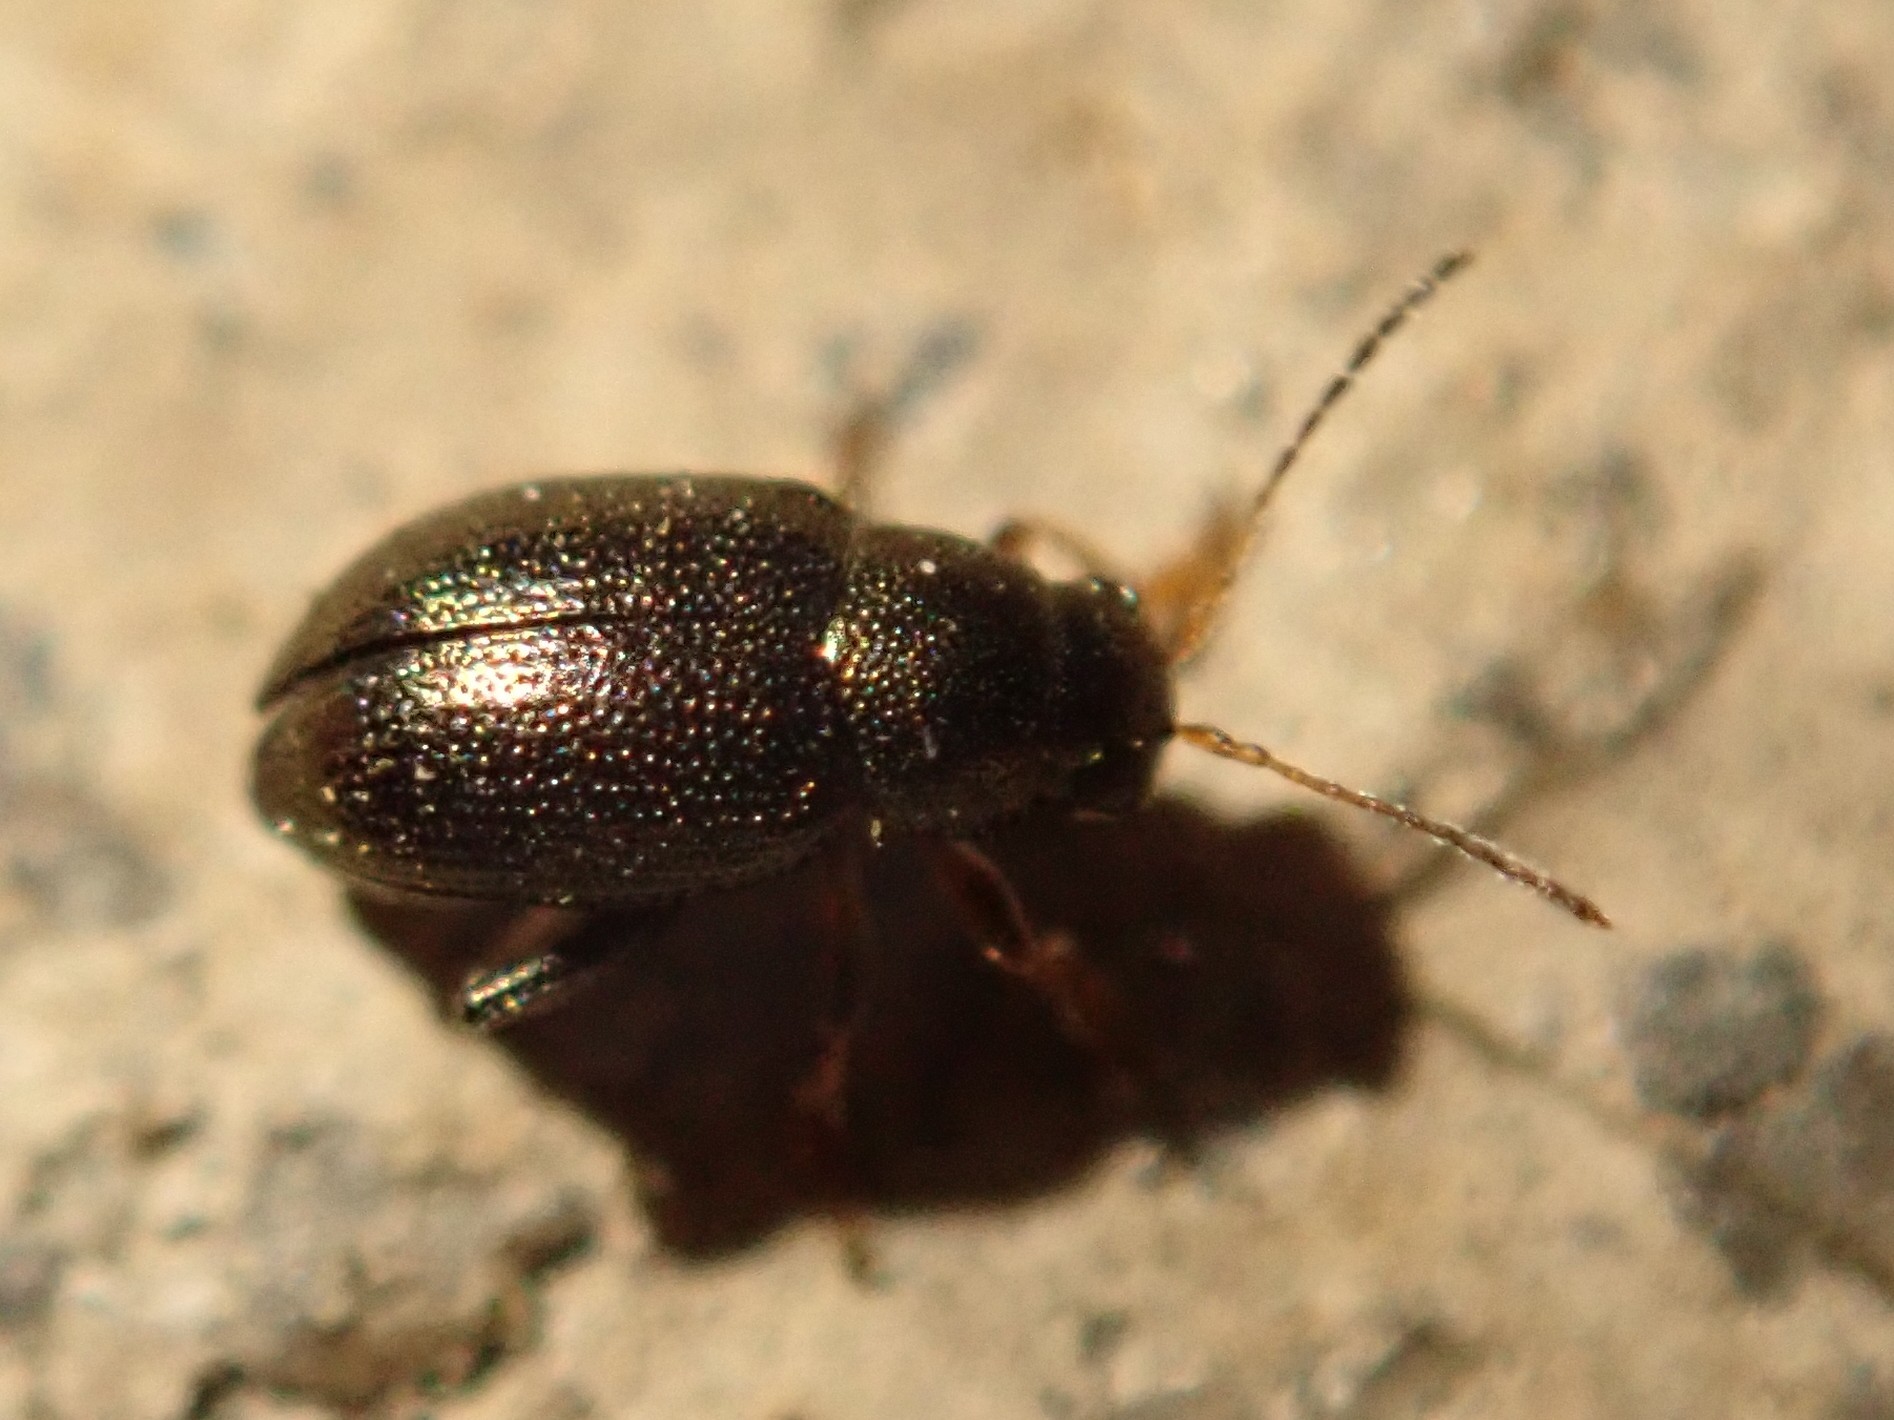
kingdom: Animalia
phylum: Arthropoda
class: Insecta
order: Coleoptera
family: Chrysomelidae
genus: Chaetocnema
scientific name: Chaetocnema hortensis
